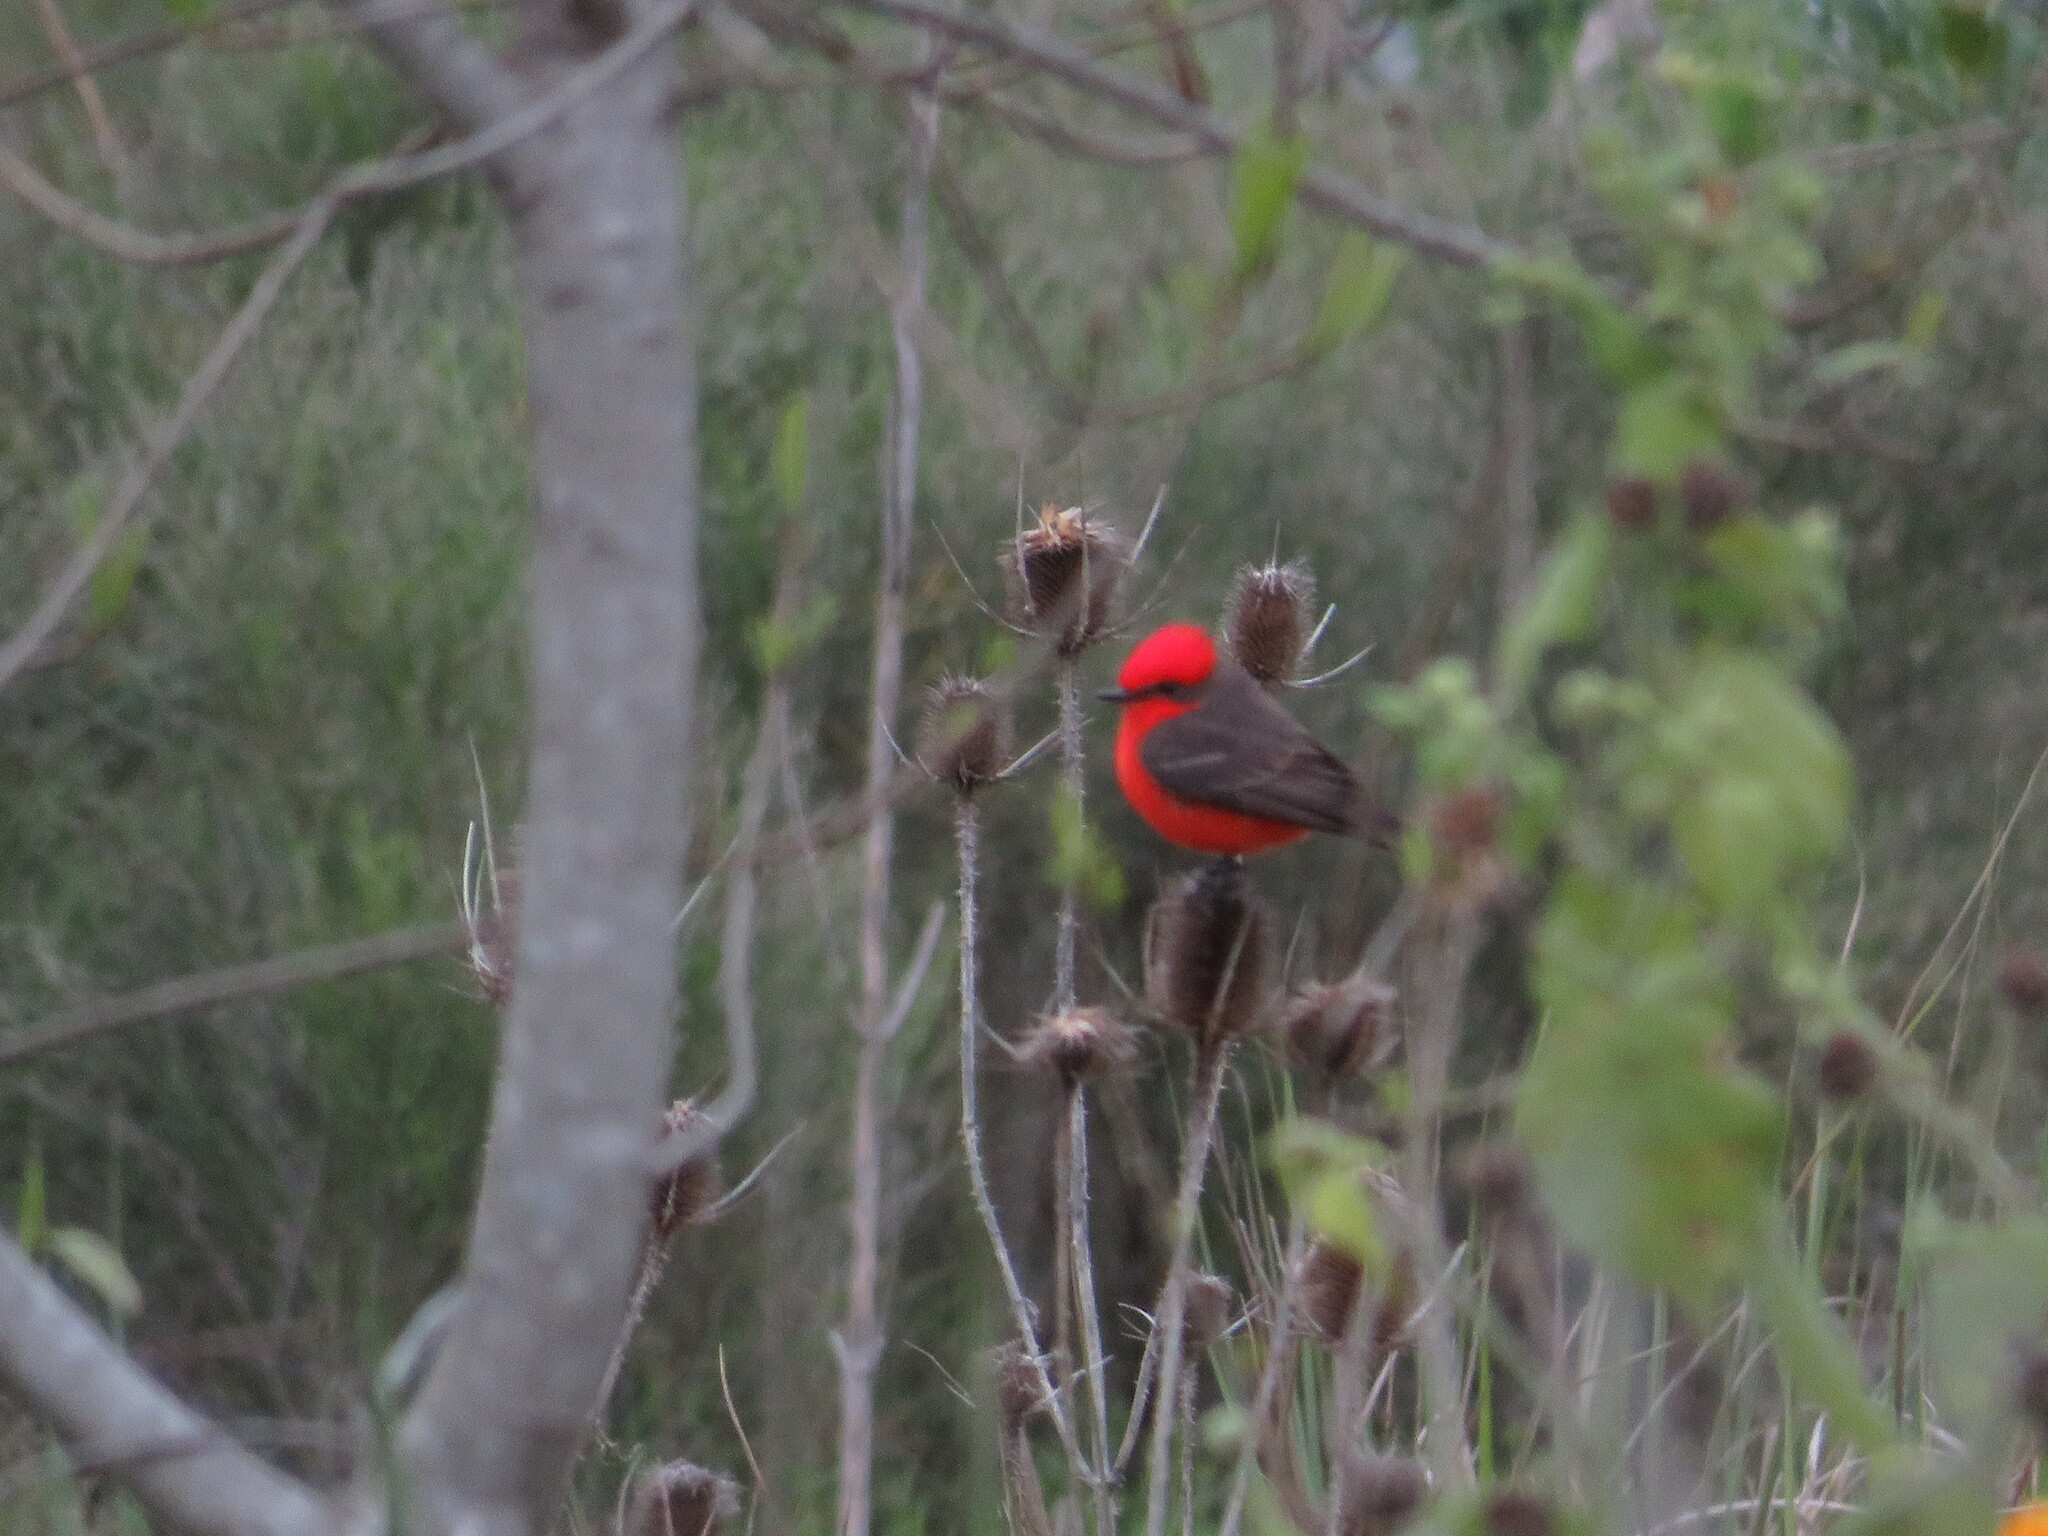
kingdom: Animalia
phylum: Chordata
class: Aves
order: Passeriformes
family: Tyrannidae
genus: Pyrocephalus
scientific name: Pyrocephalus rubinus
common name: Vermilion flycatcher
